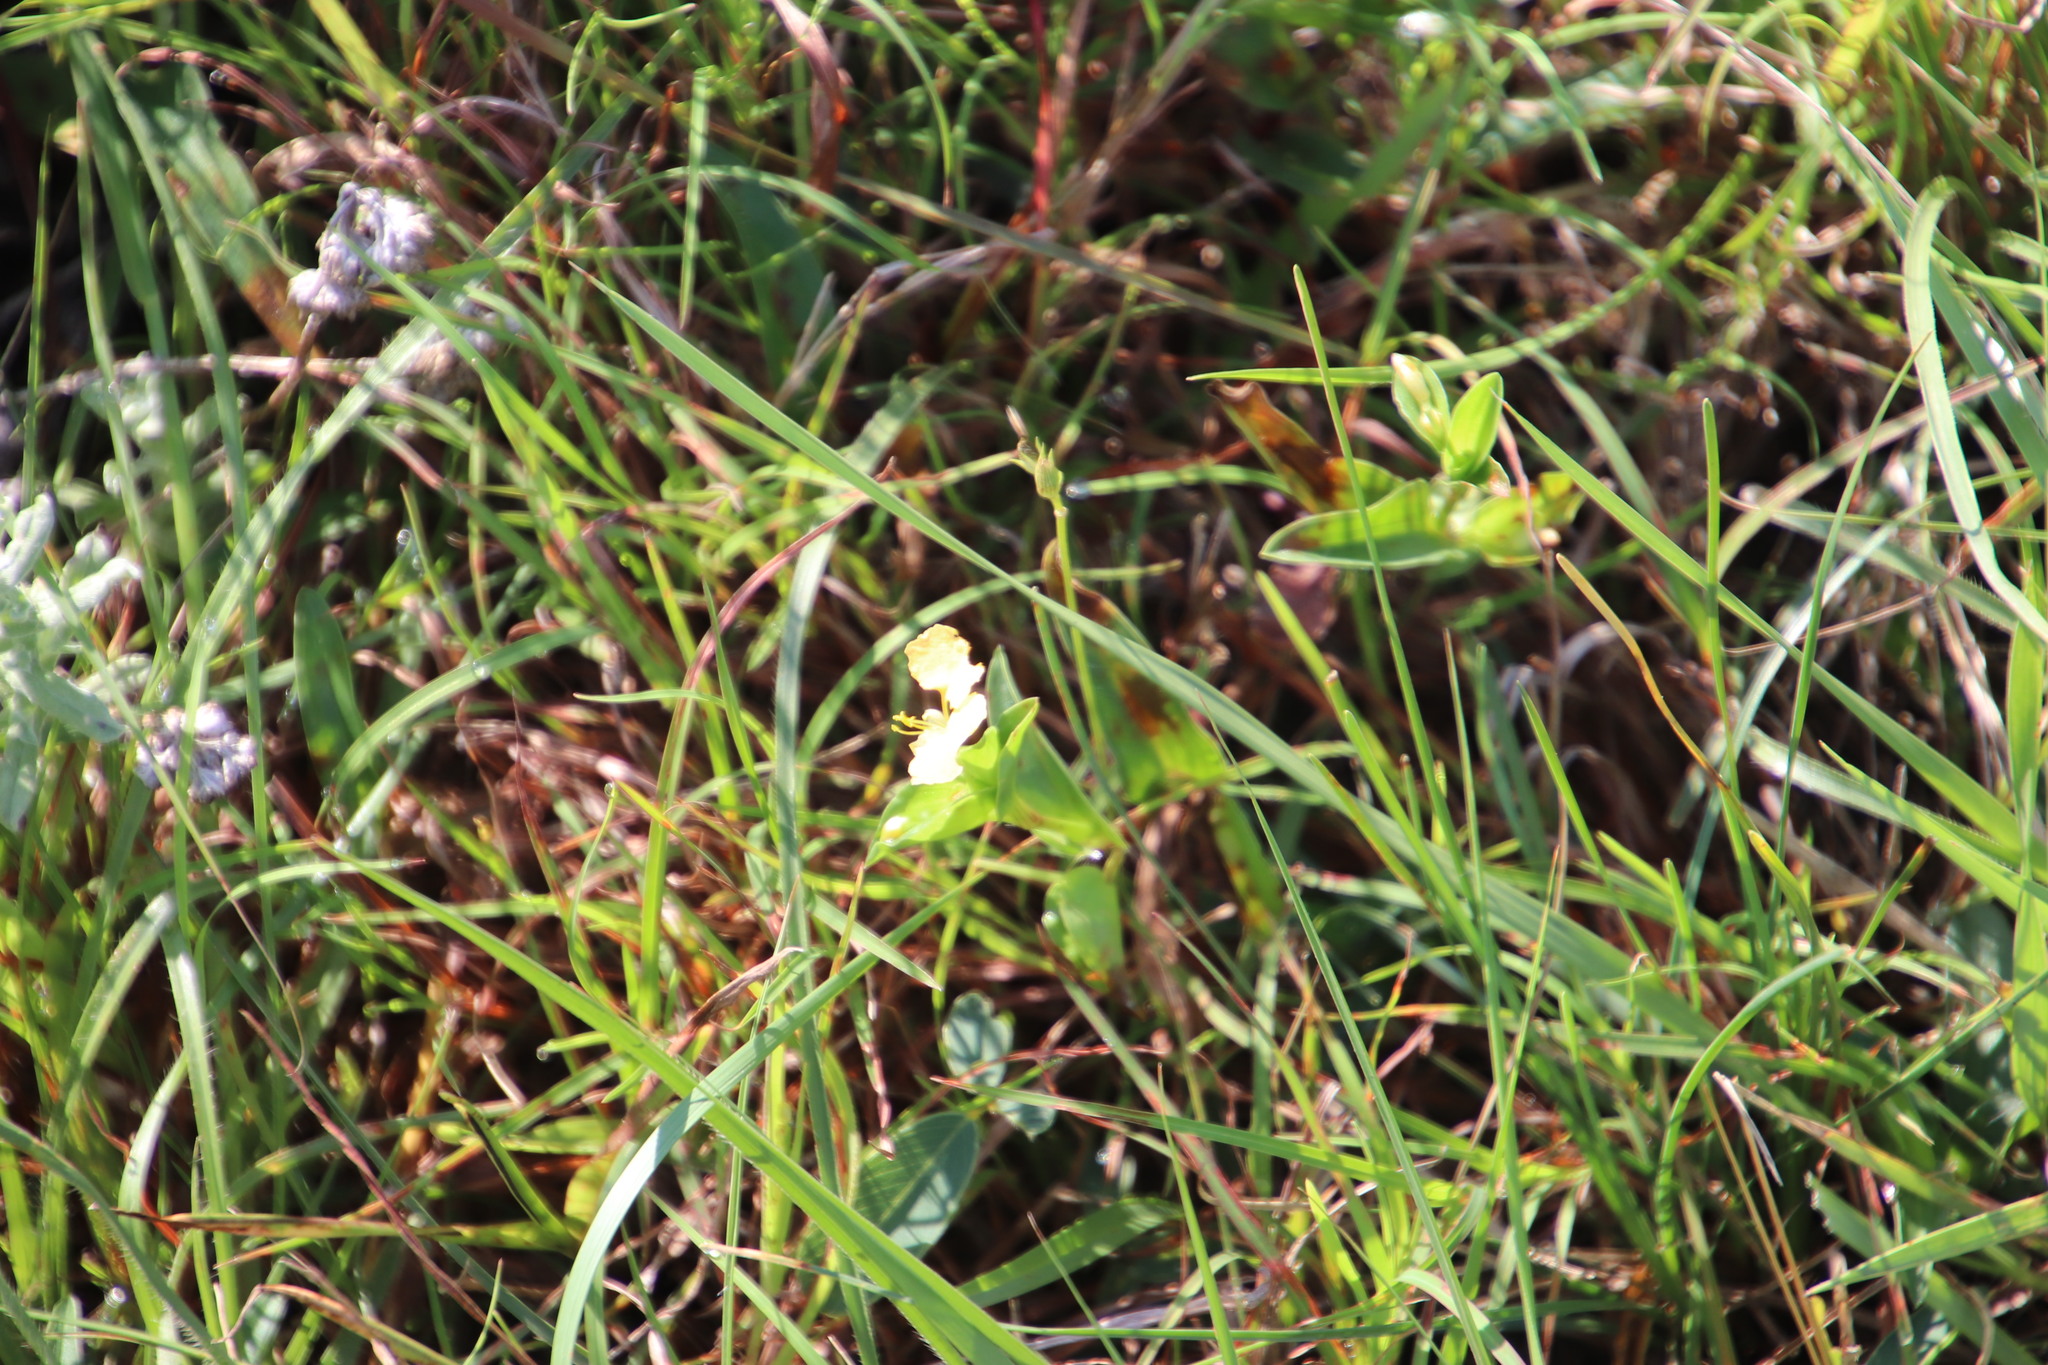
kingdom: Plantae
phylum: Tracheophyta
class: Liliopsida
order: Commelinales
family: Commelinaceae
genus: Commelina
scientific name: Commelina africana
